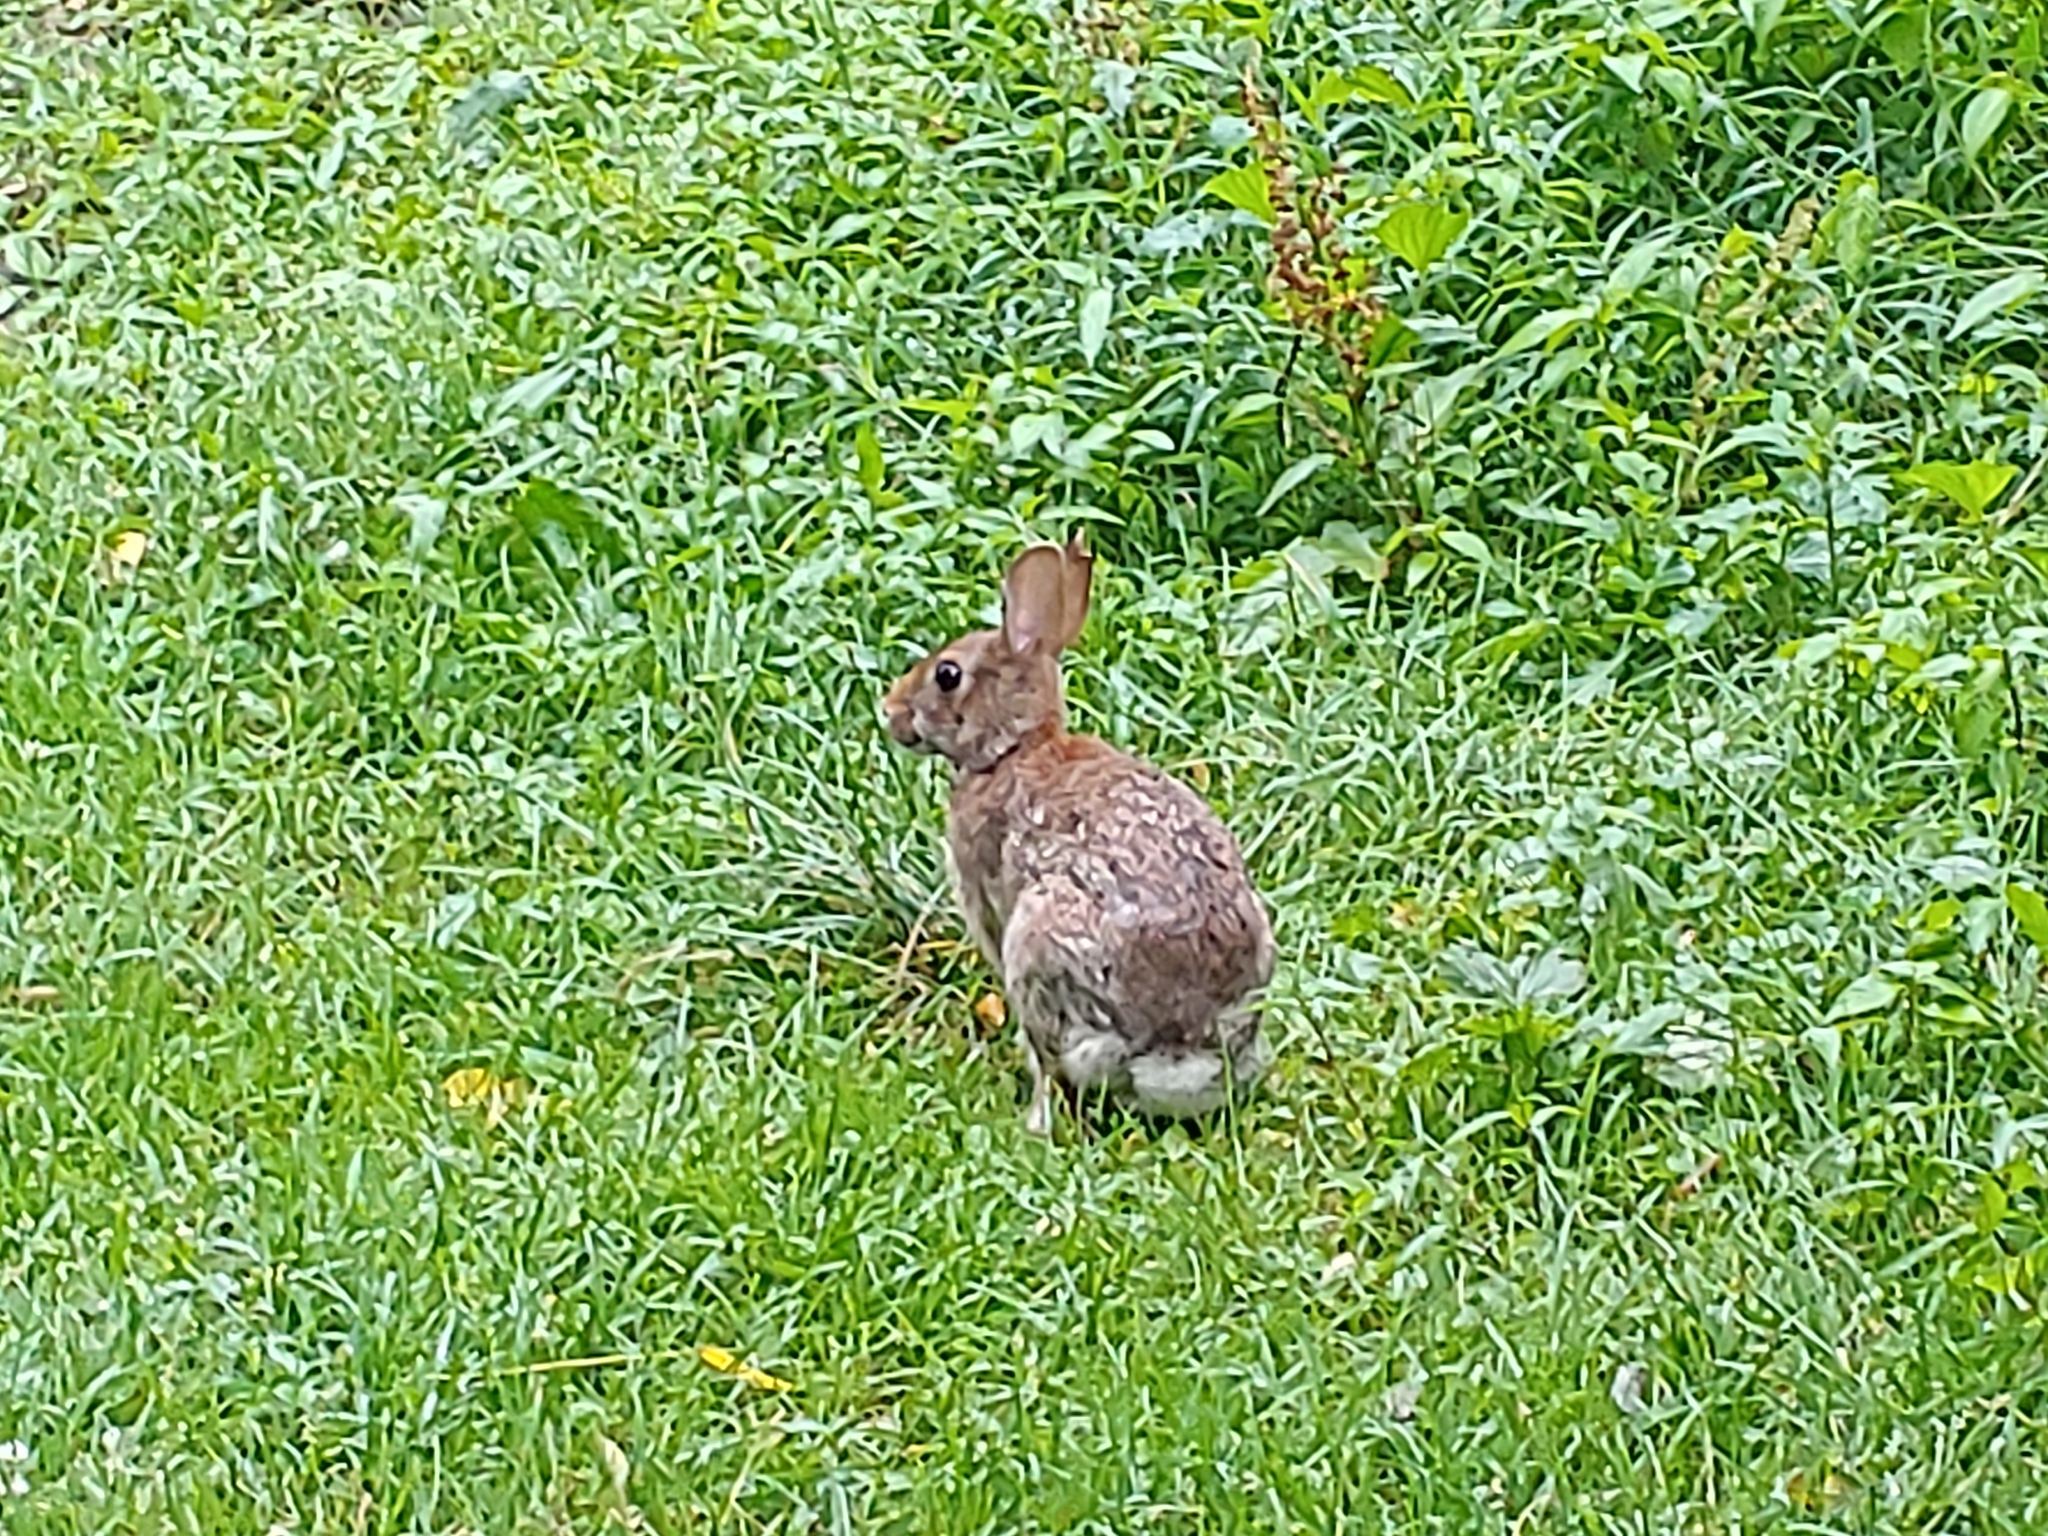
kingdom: Animalia
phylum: Chordata
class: Mammalia
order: Lagomorpha
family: Leporidae
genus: Sylvilagus
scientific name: Sylvilagus floridanus
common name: Eastern cottontail
